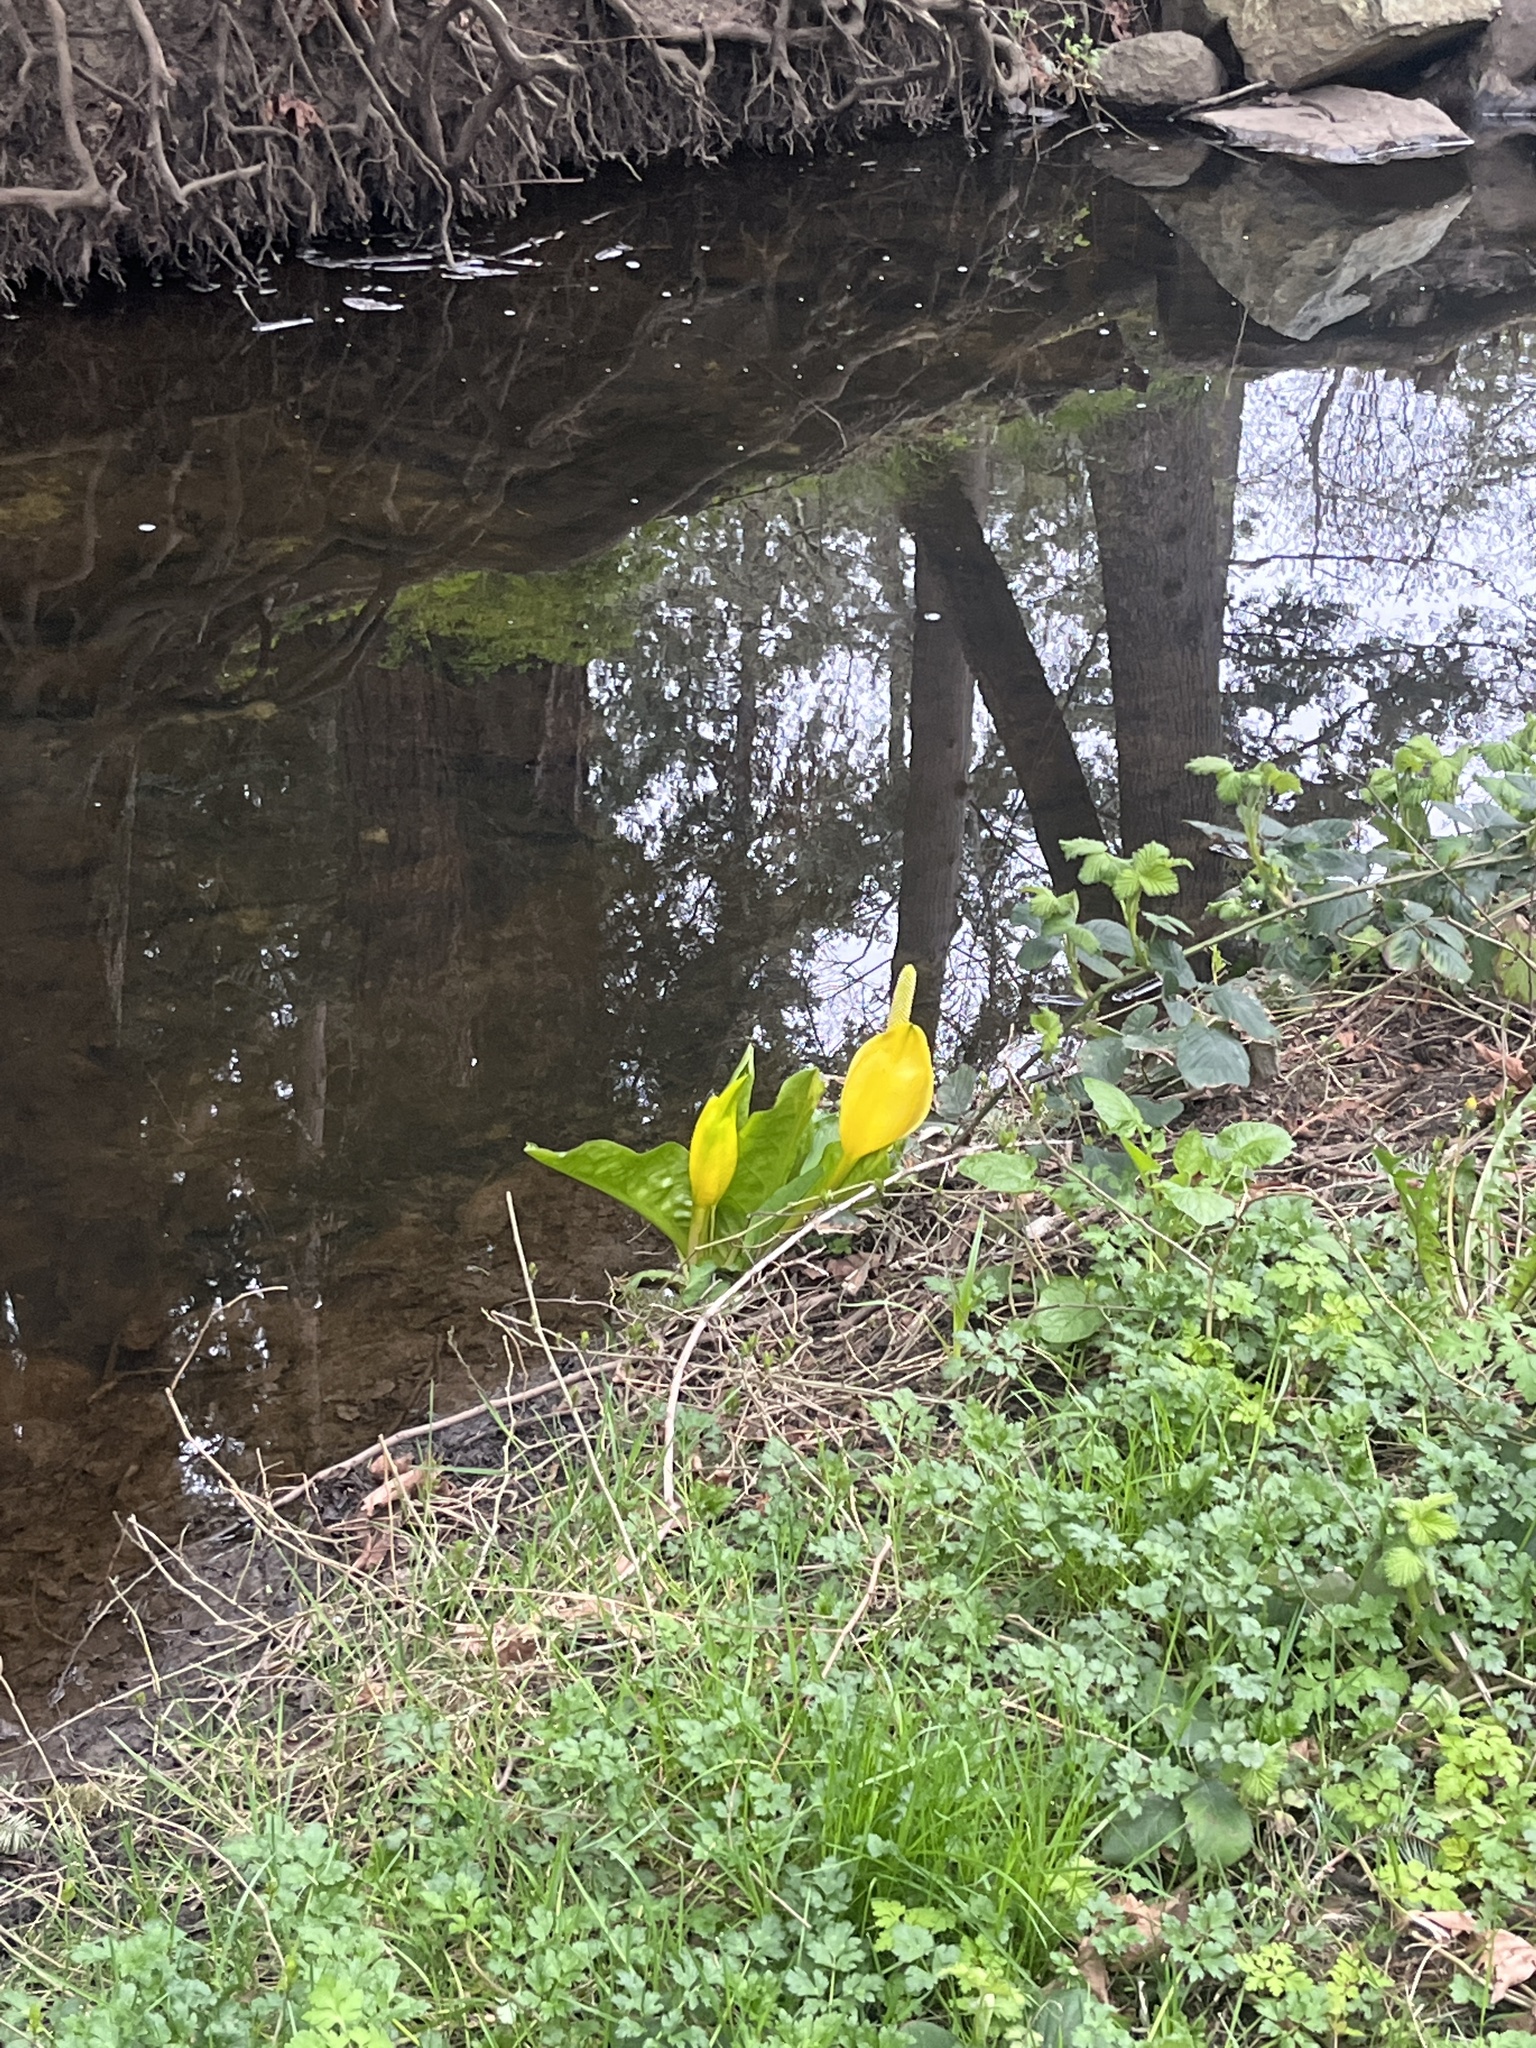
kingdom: Plantae
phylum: Tracheophyta
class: Liliopsida
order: Alismatales
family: Araceae
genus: Lysichiton
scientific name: Lysichiton americanus
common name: American skunk cabbage
